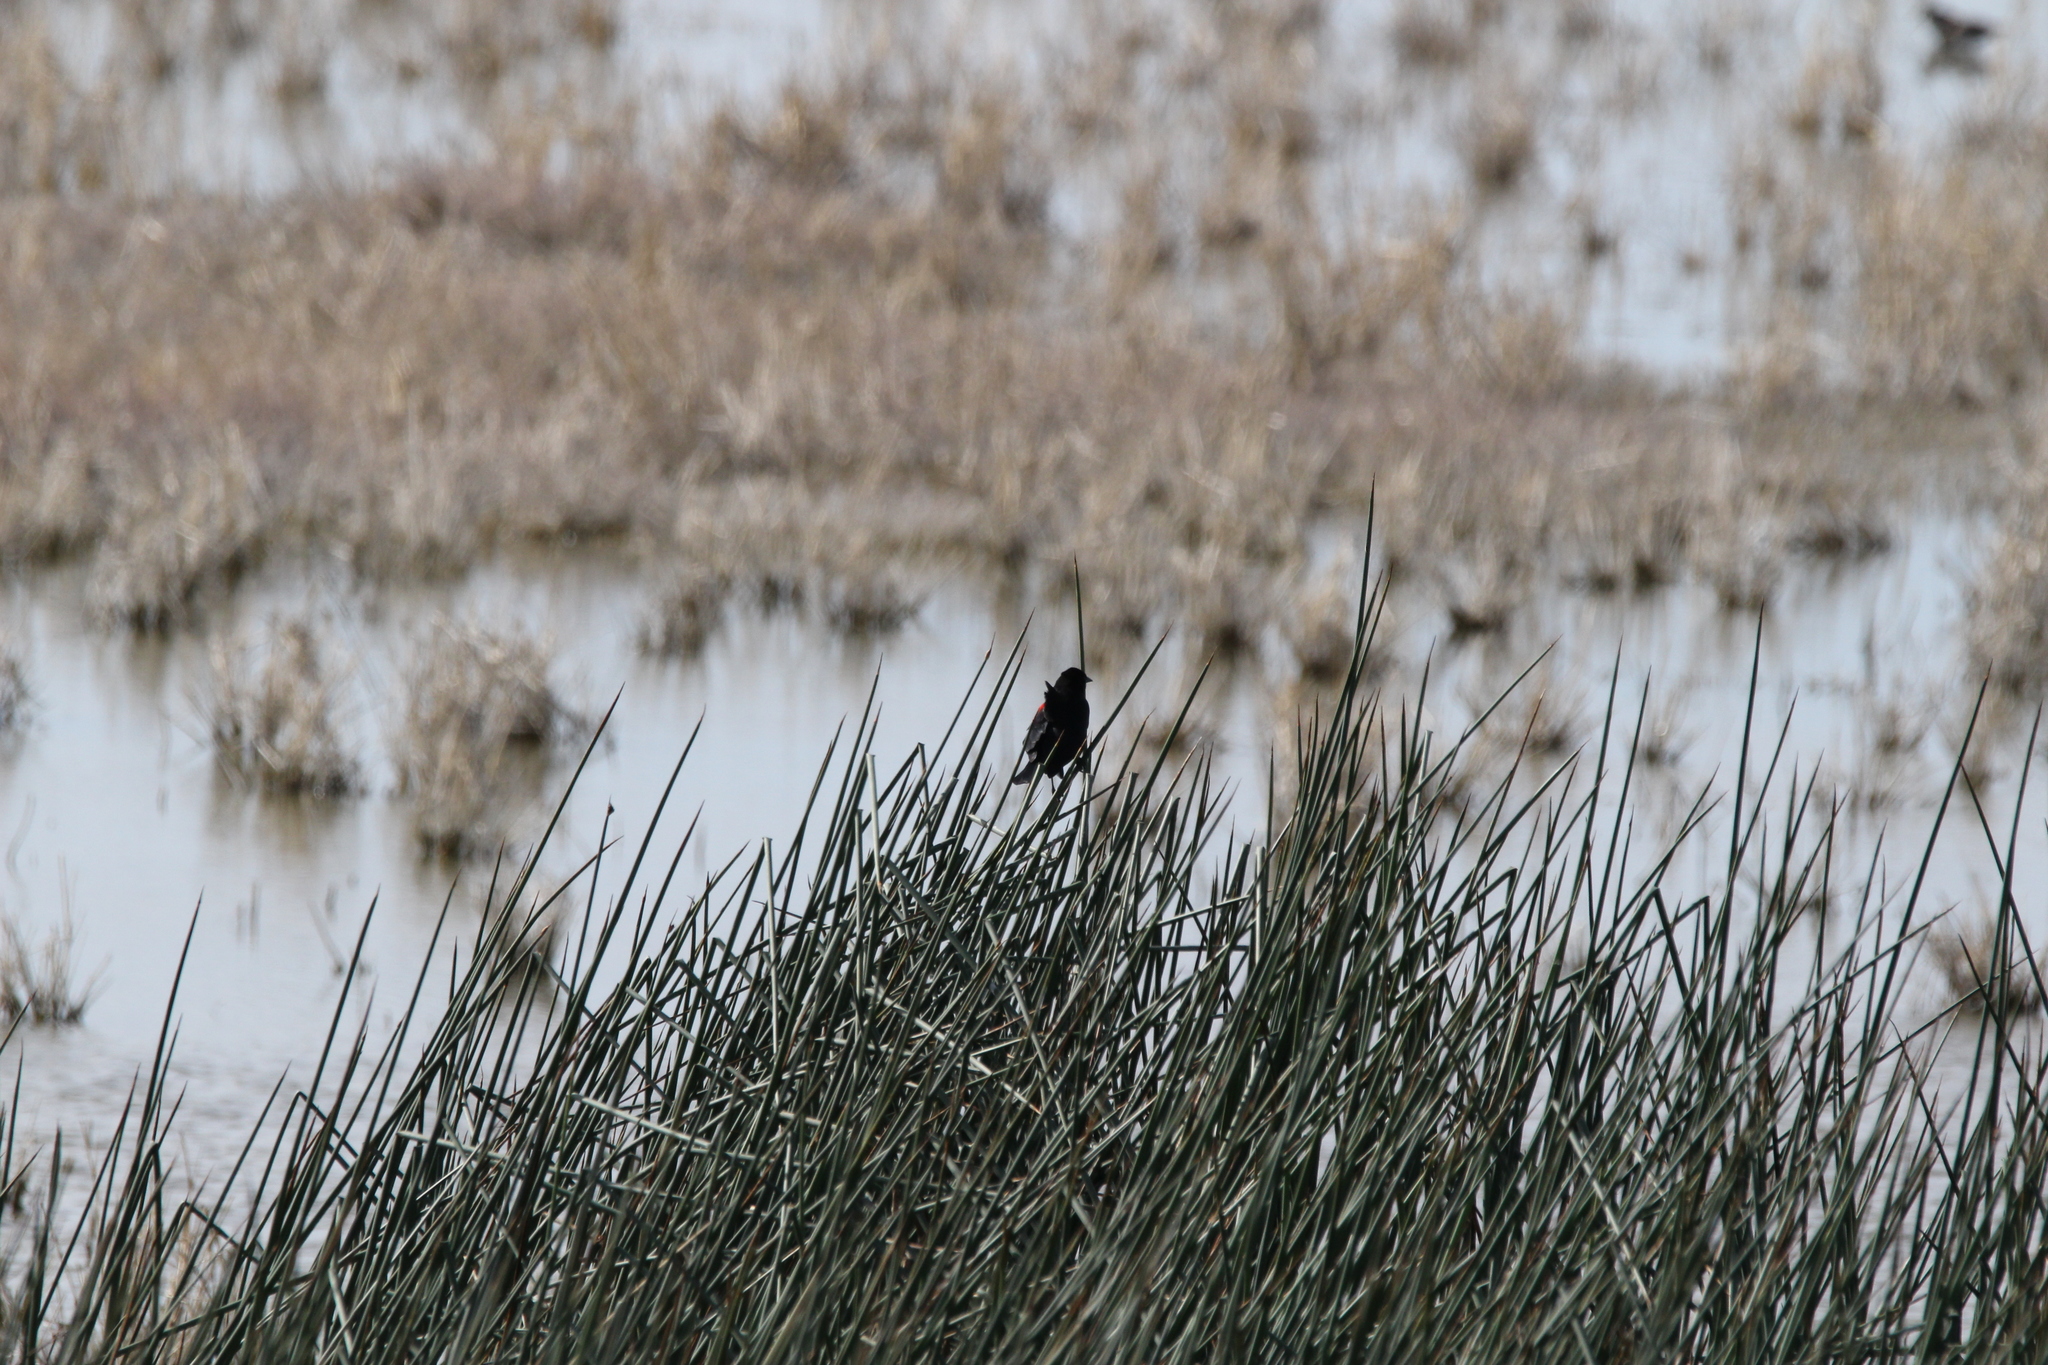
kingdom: Animalia
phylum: Chordata
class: Aves
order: Passeriformes
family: Icteridae
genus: Agelaius
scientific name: Agelaius phoeniceus
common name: Red-winged blackbird
